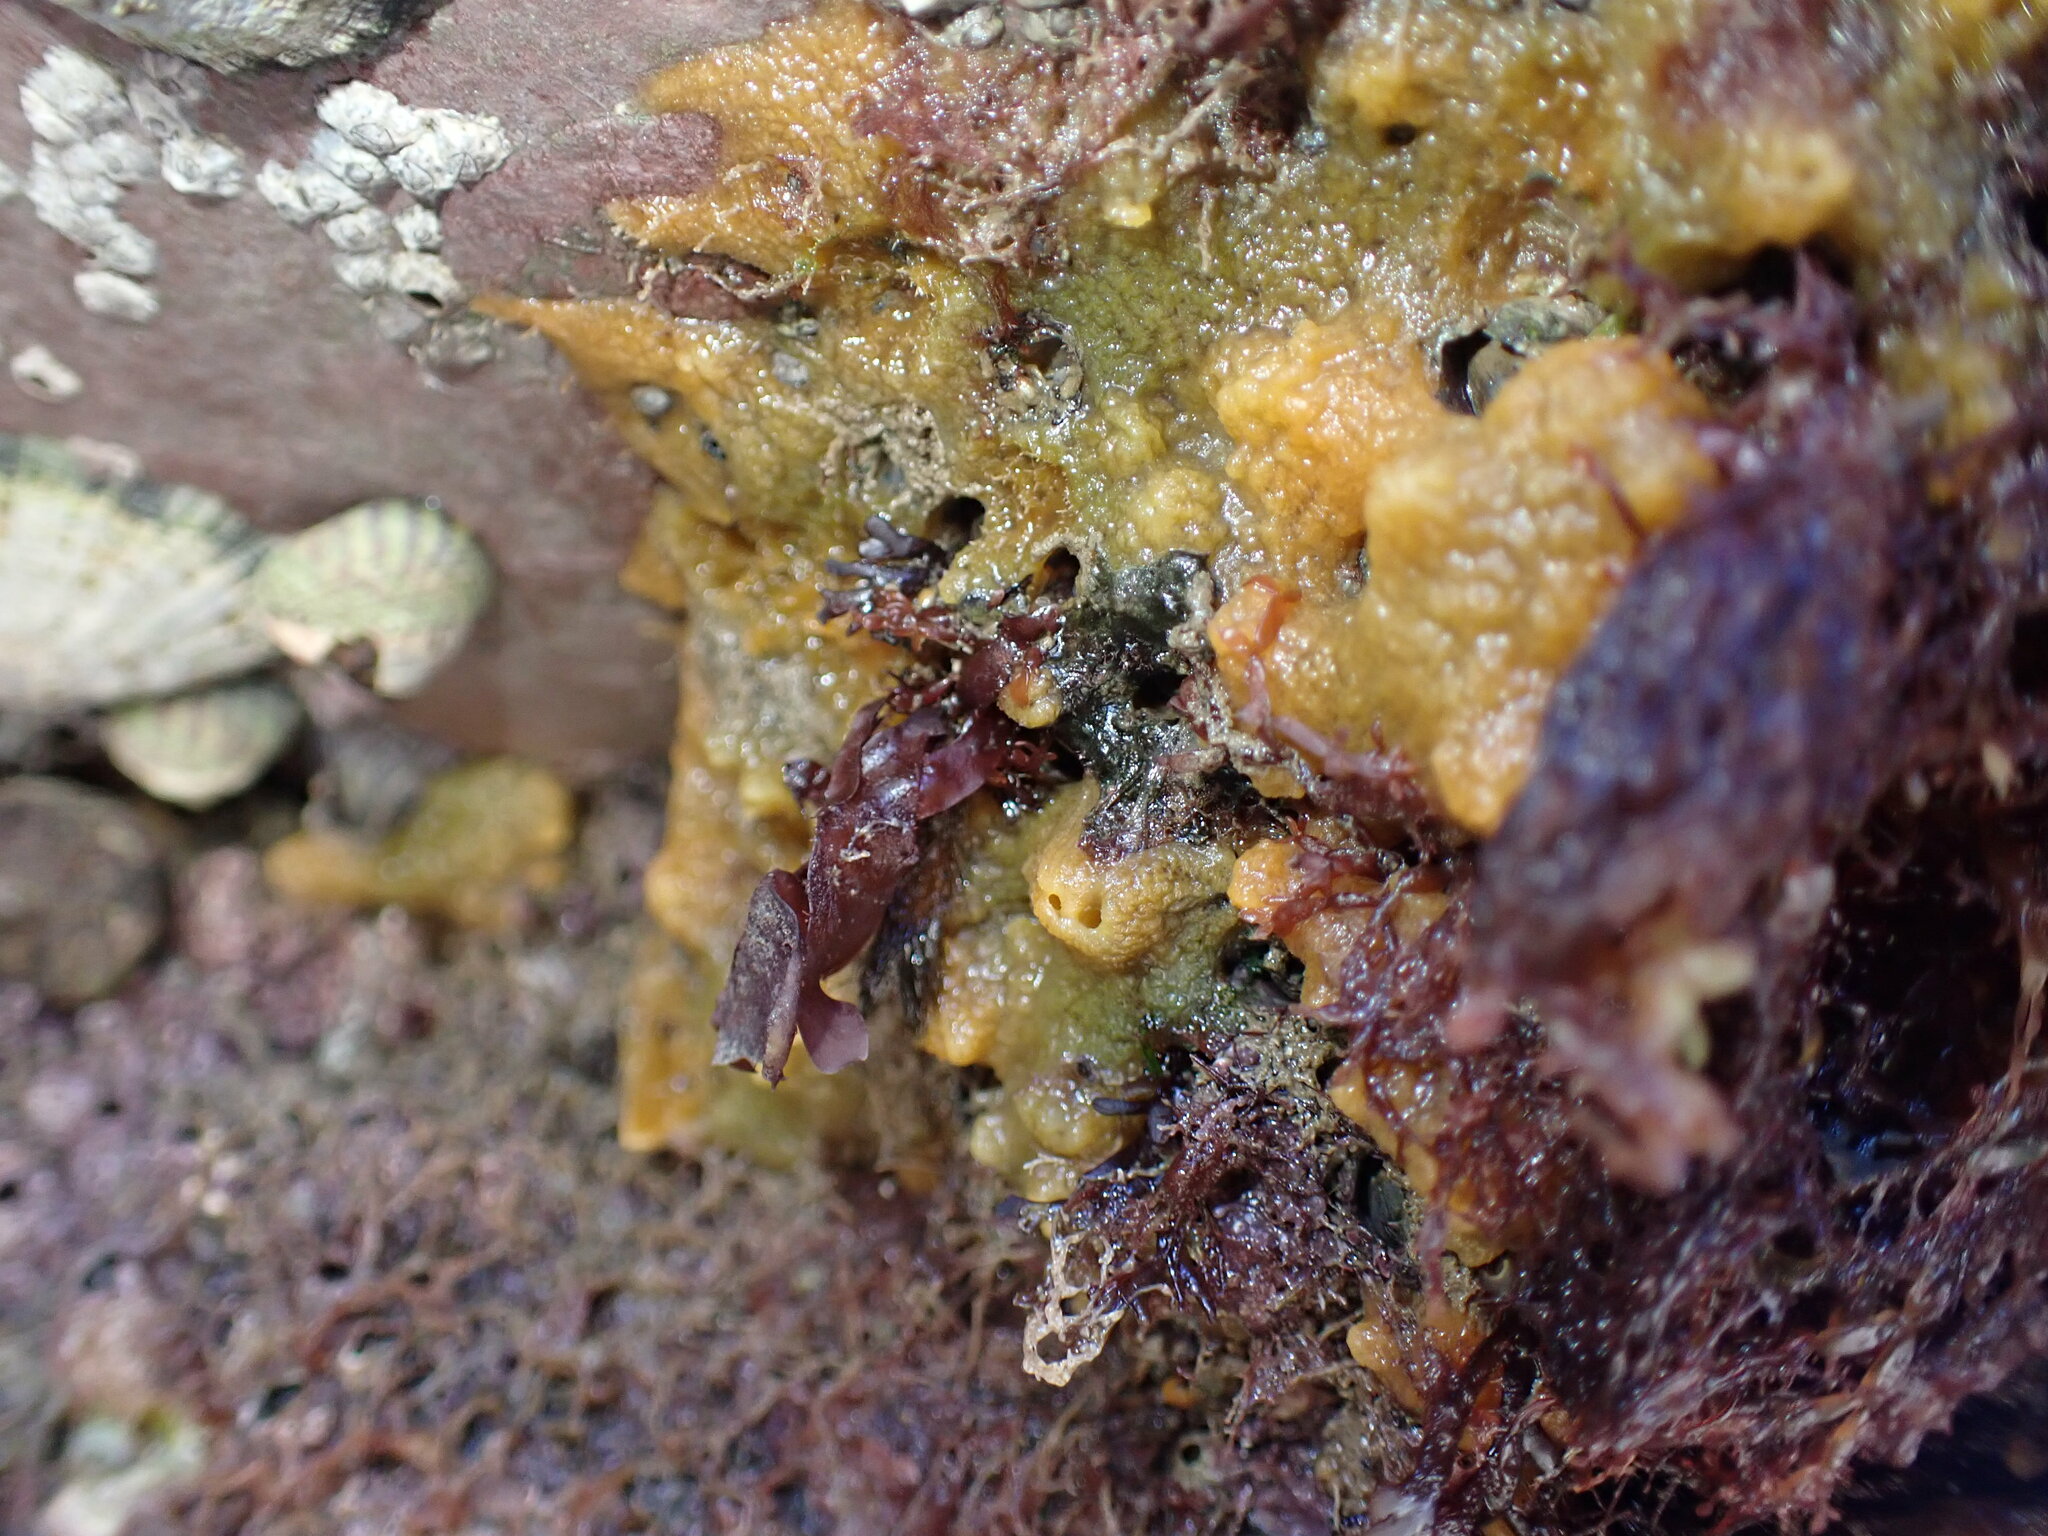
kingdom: Animalia
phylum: Porifera
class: Demospongiae
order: Suberitida
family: Halichondriidae
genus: Hymeniacidon
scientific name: Hymeniacidon perlevis
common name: Crumb-of-bread sponge
